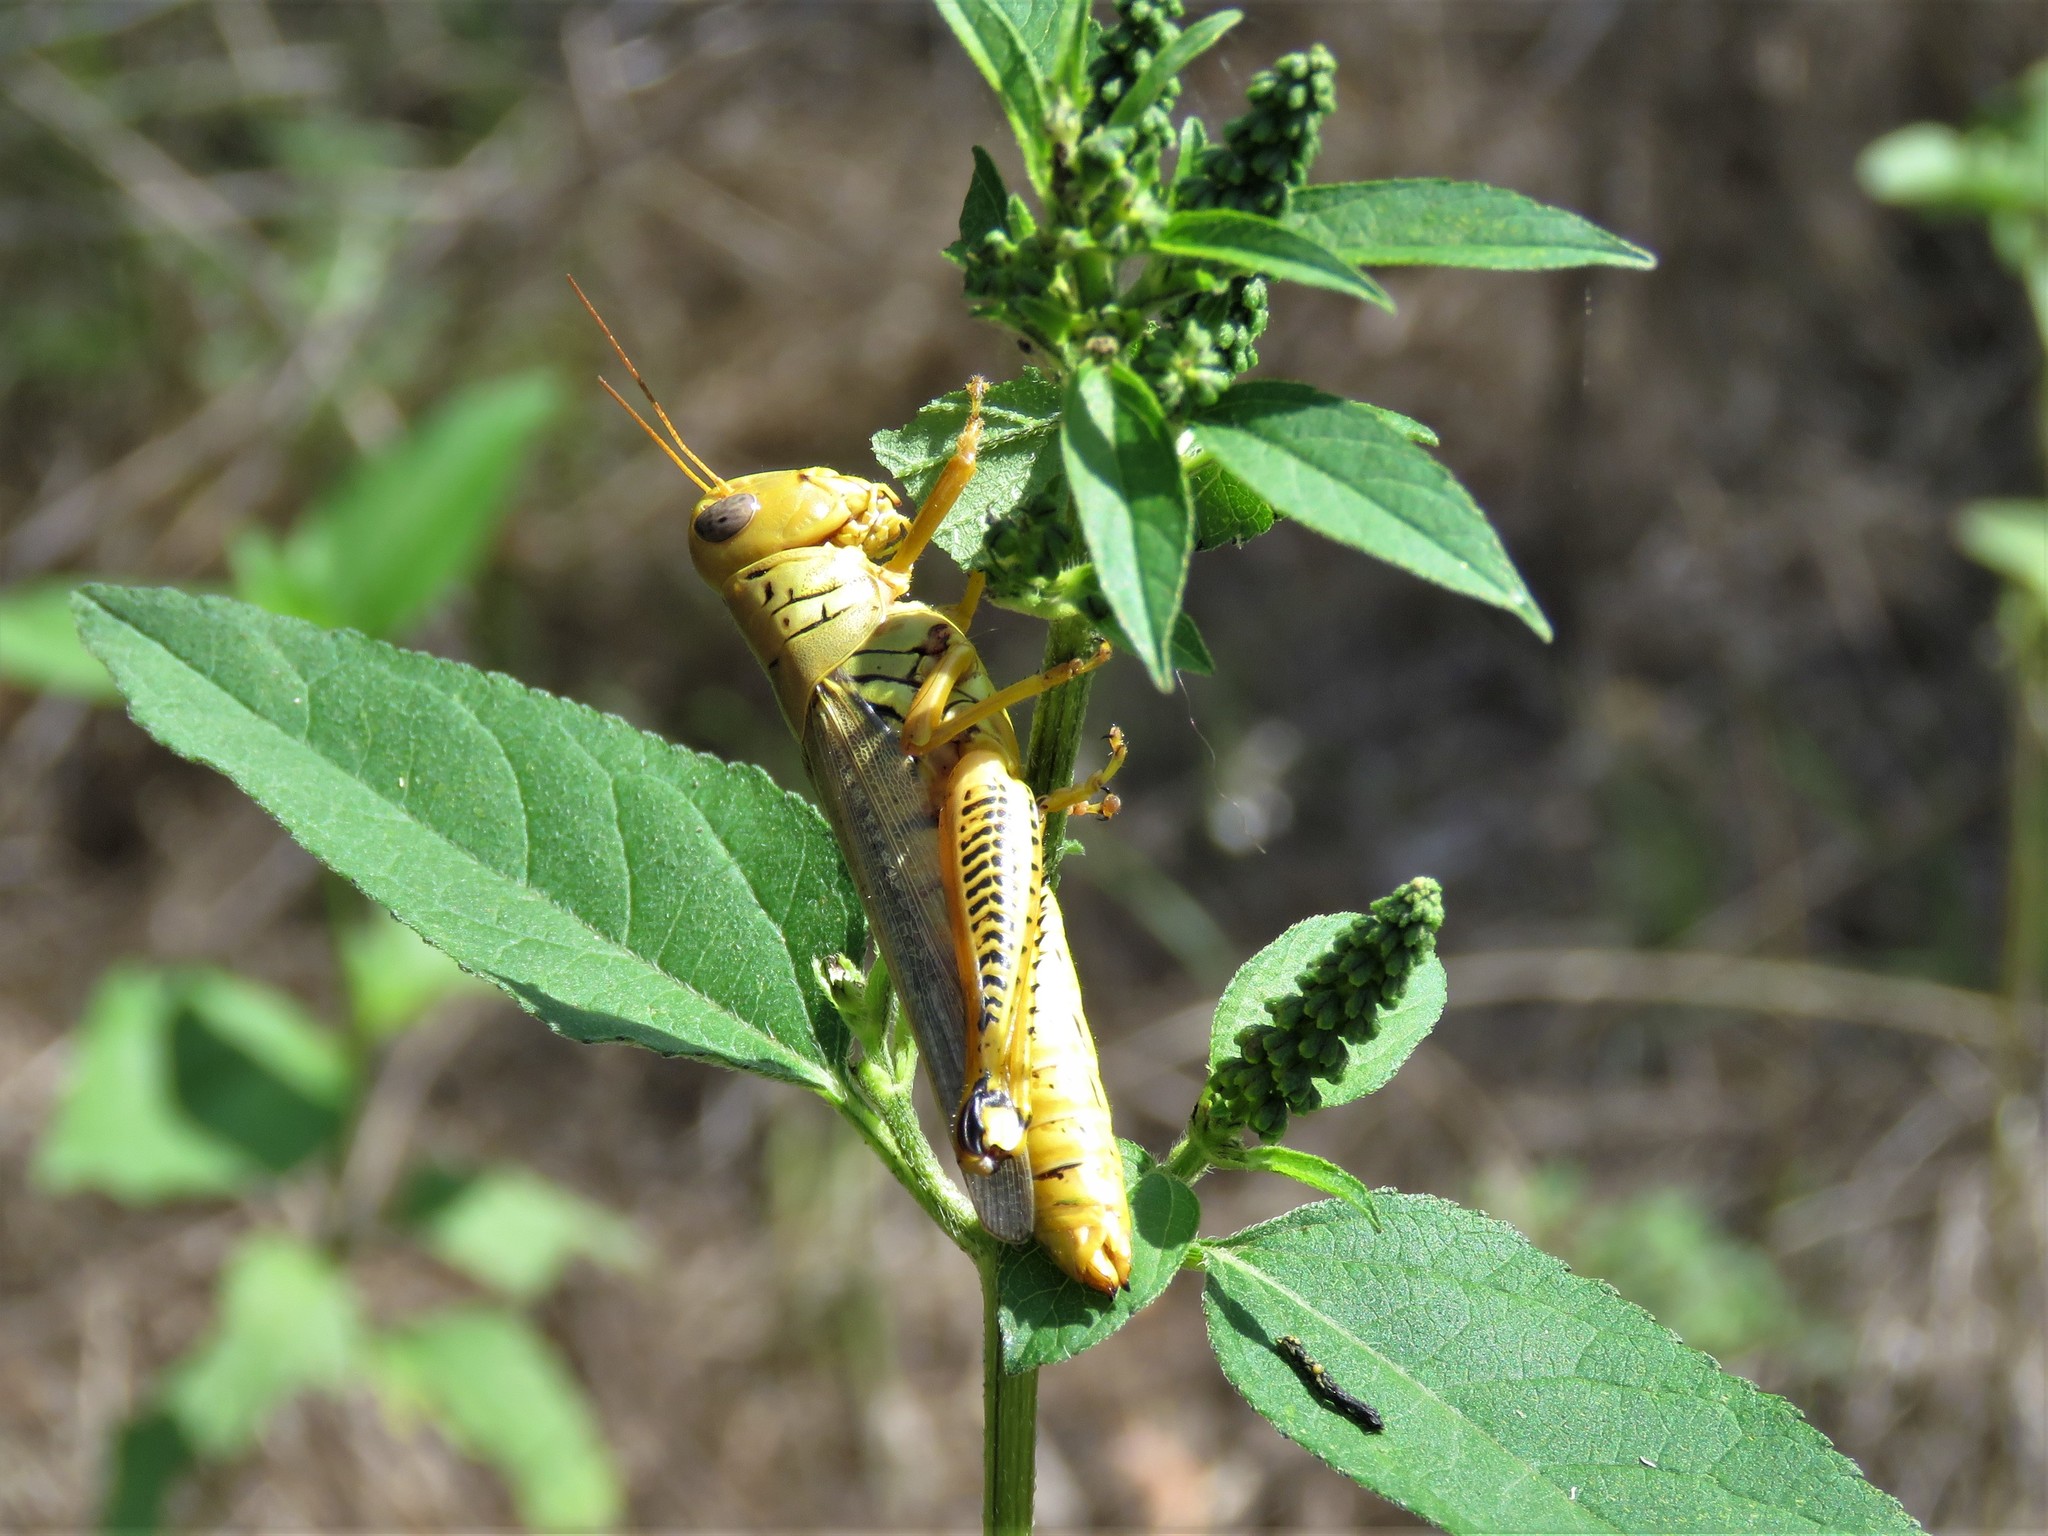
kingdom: Animalia
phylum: Arthropoda
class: Insecta
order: Orthoptera
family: Acrididae
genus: Melanoplus
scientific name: Melanoplus differentialis
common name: Differential grasshopper
